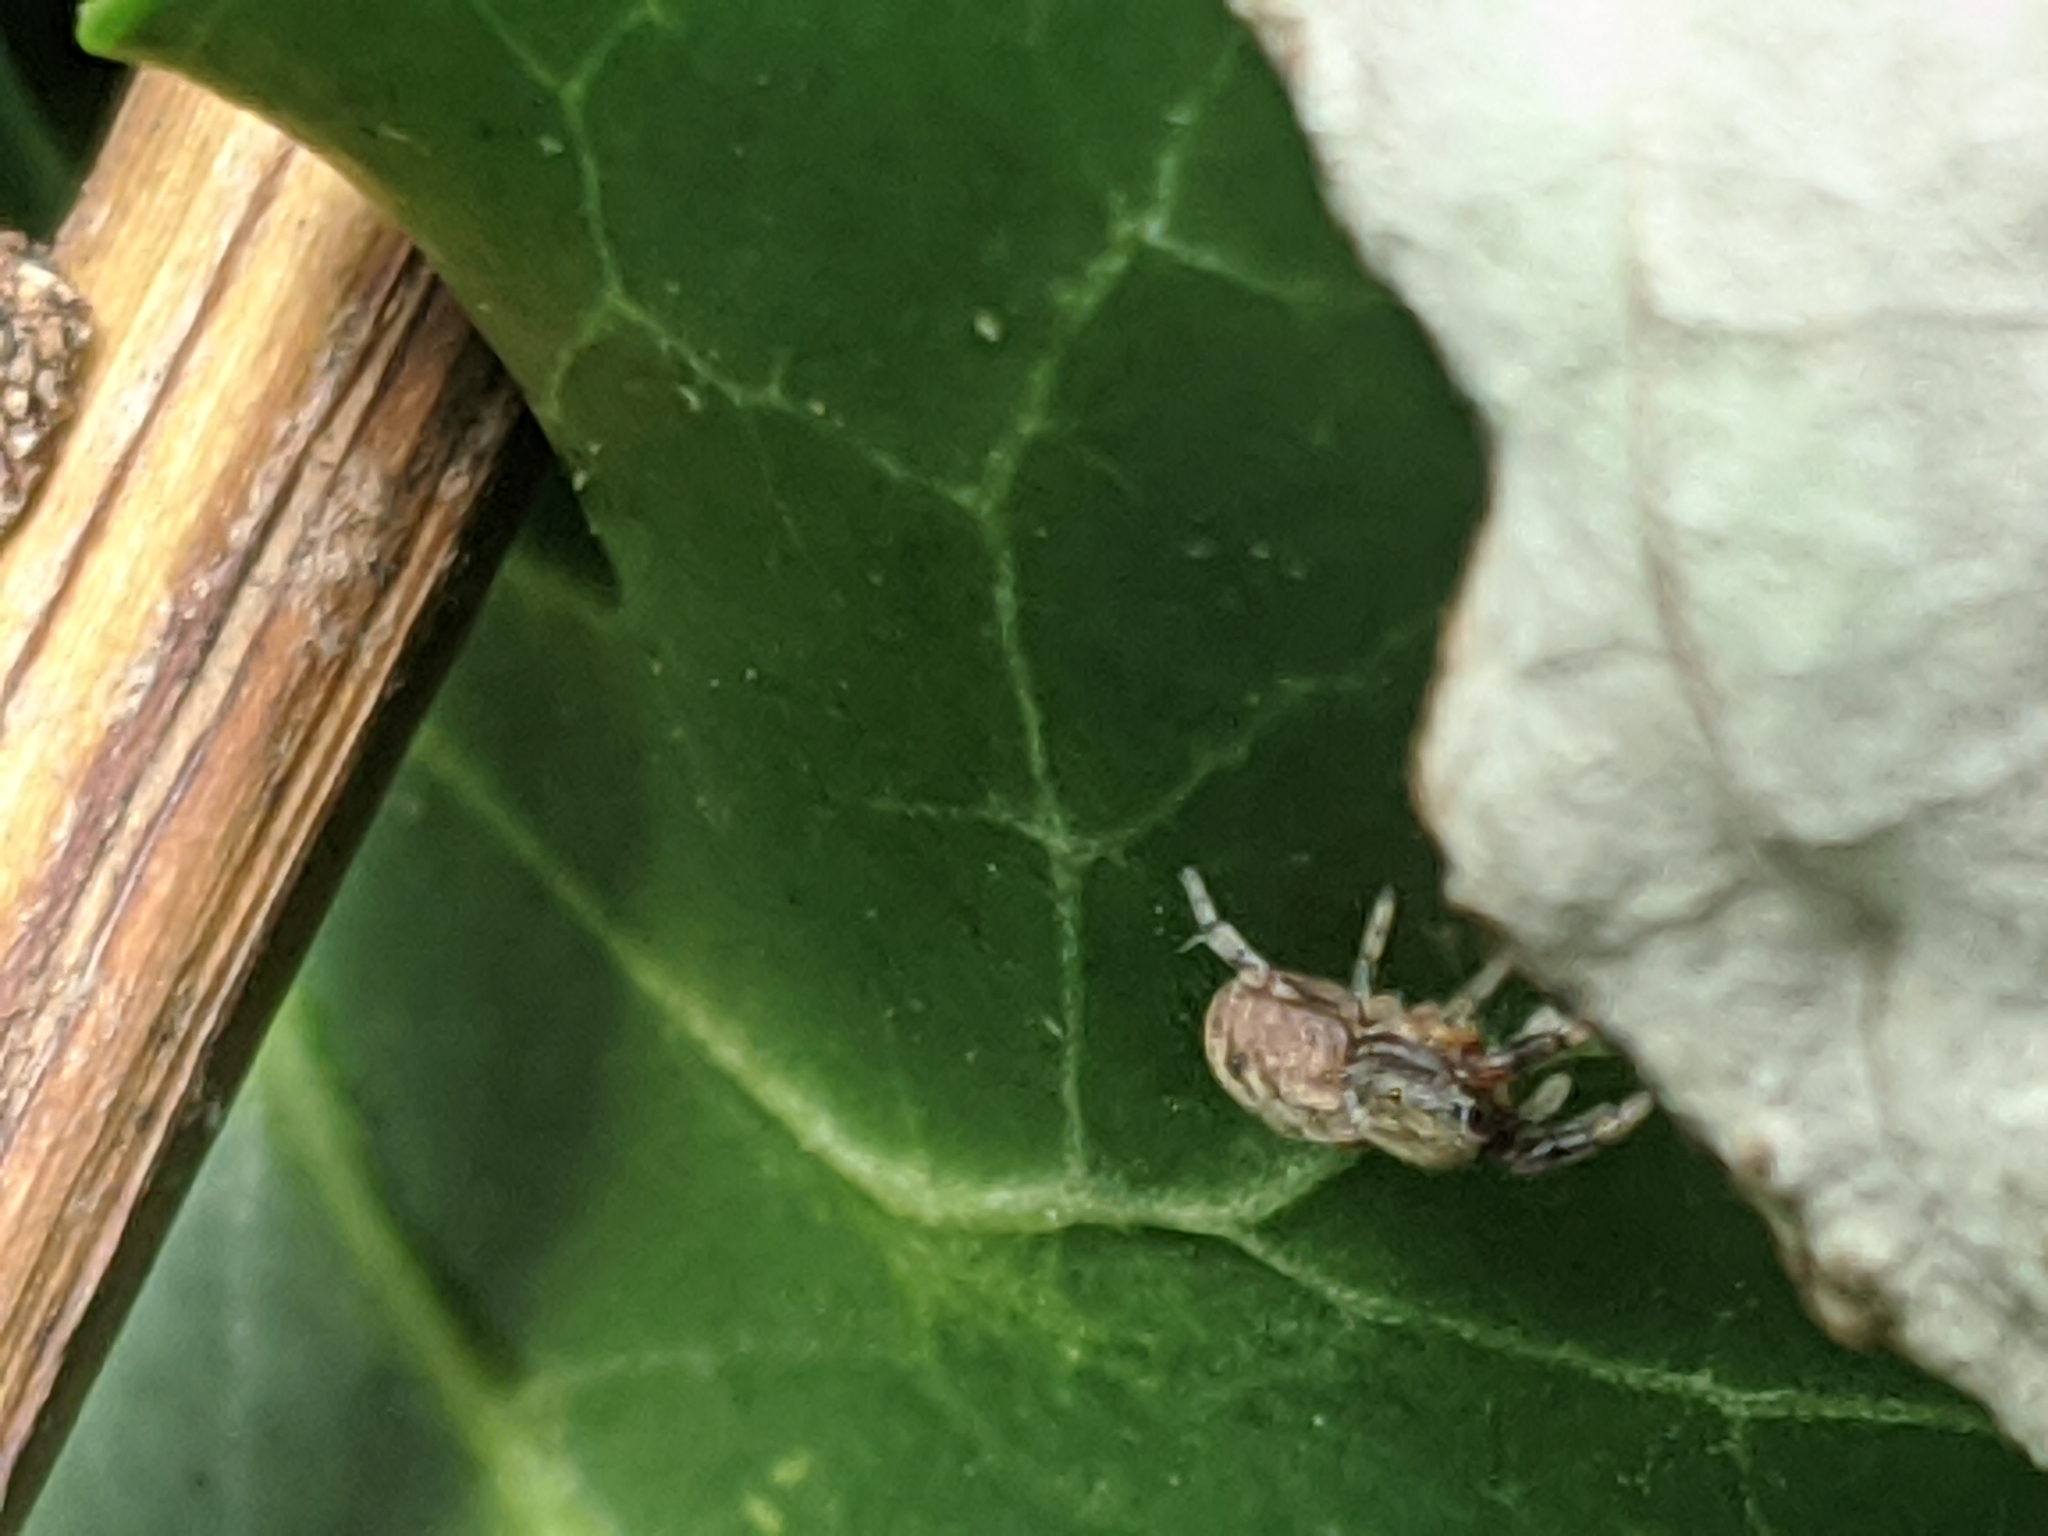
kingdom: Animalia
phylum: Arthropoda
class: Arachnida
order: Araneae
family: Salticidae
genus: Ballus
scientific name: Ballus chalybeius
